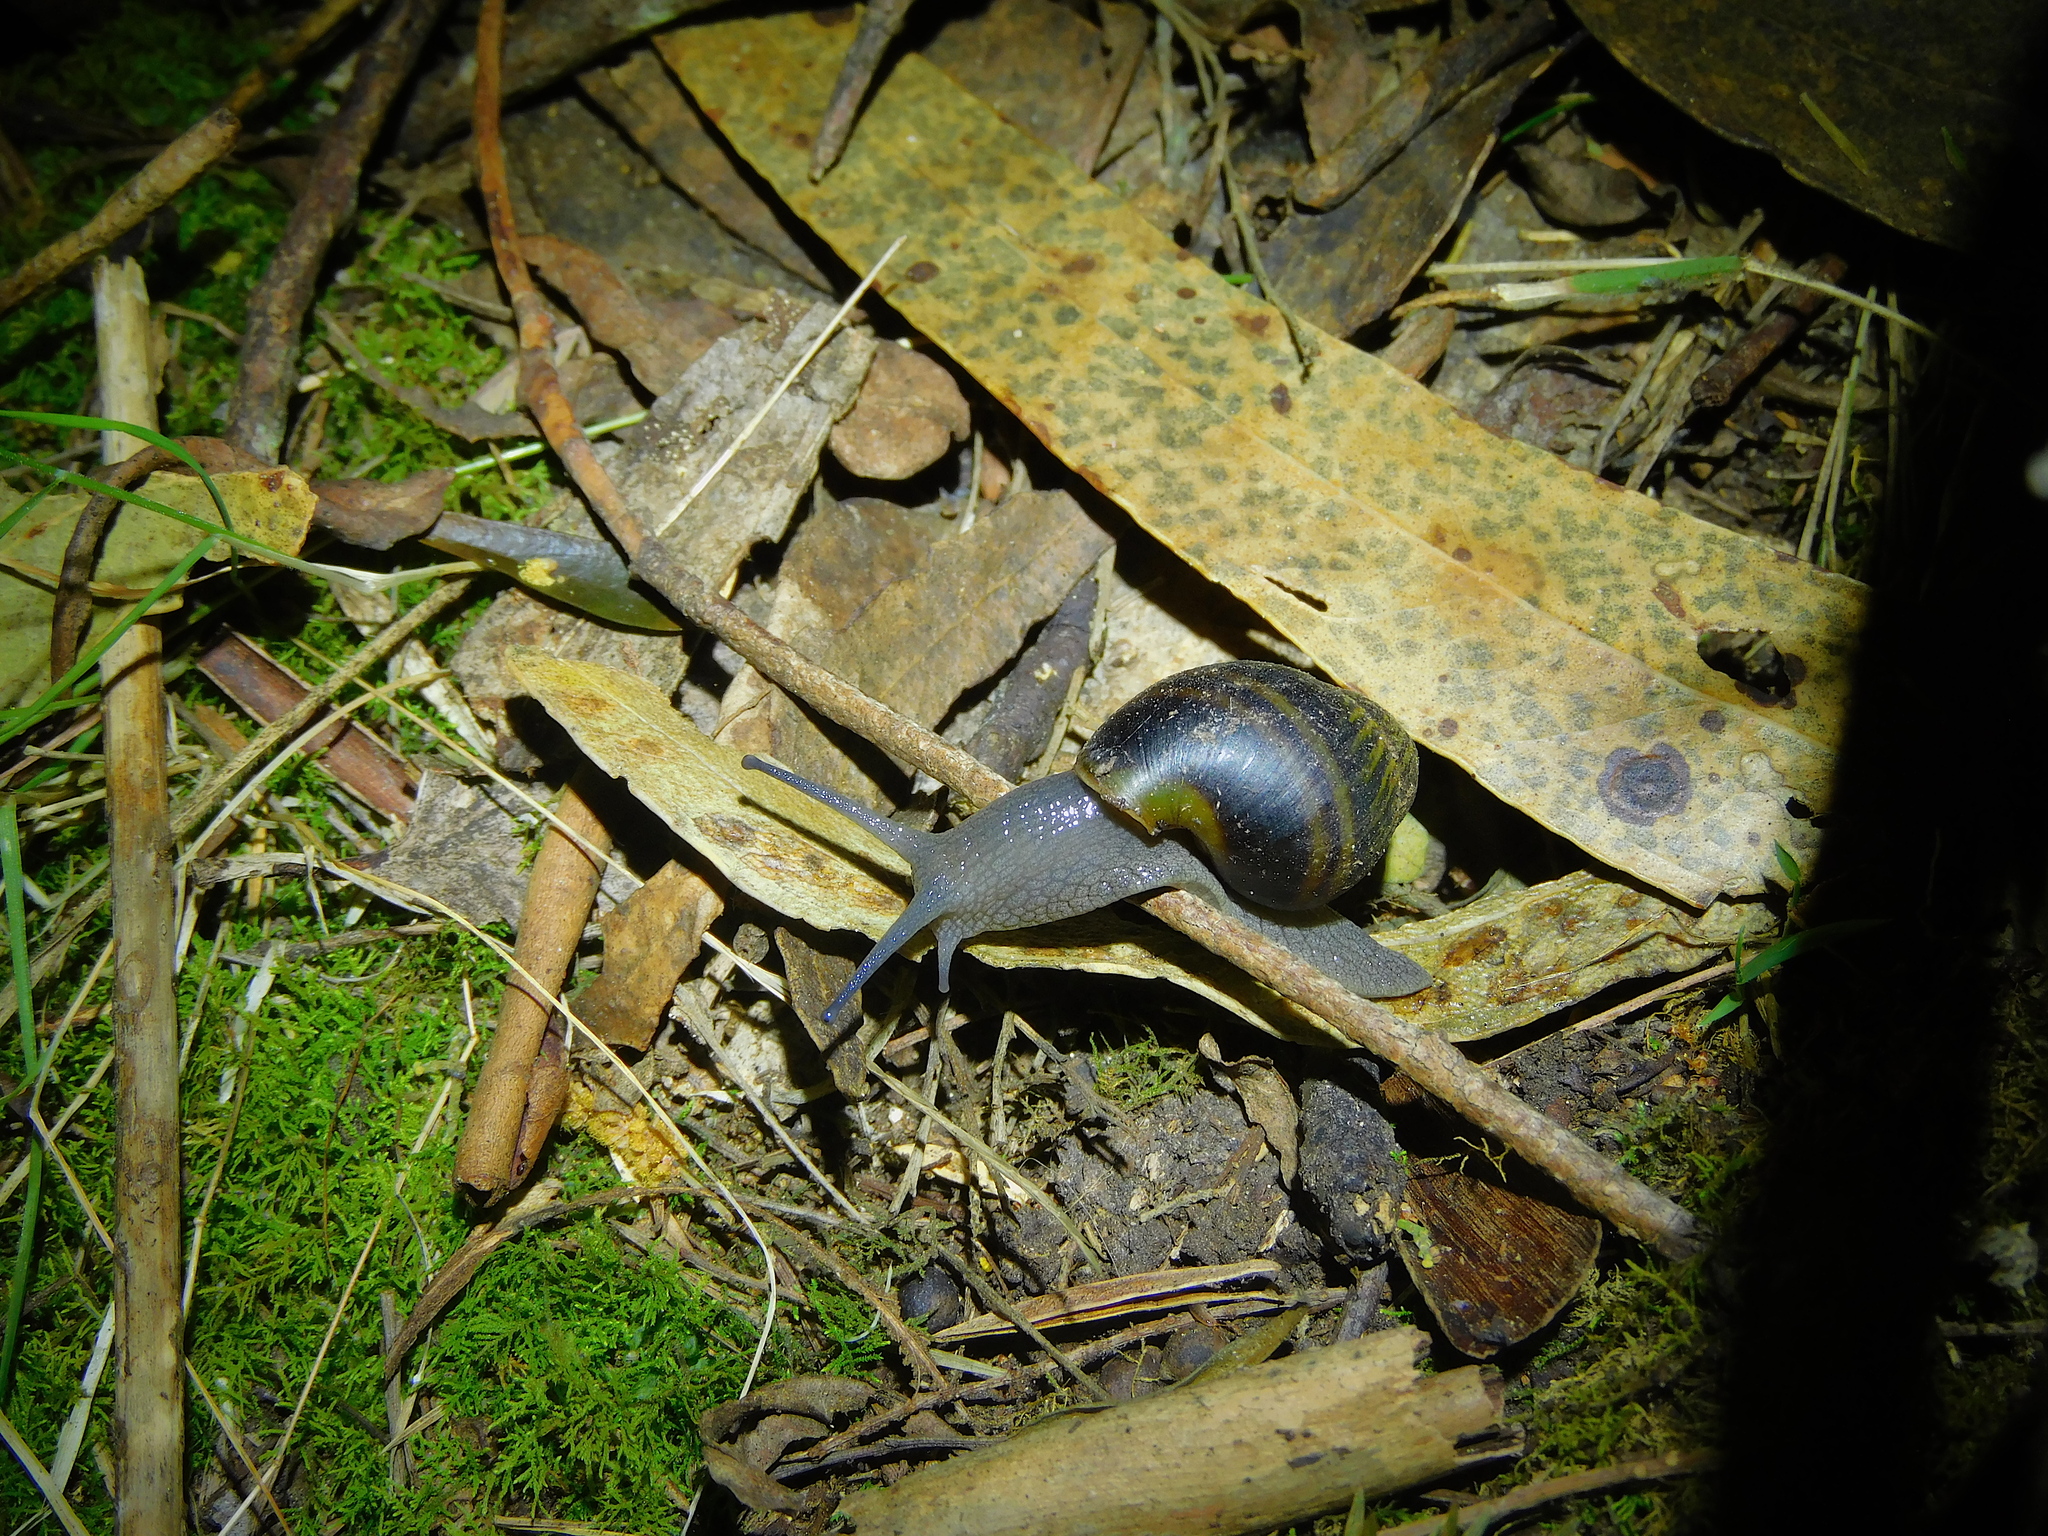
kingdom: Animalia
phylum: Mollusca
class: Gastropoda
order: Stylommatophora
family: Caryodidae
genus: Caryodes
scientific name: Caryodes dufresnii
